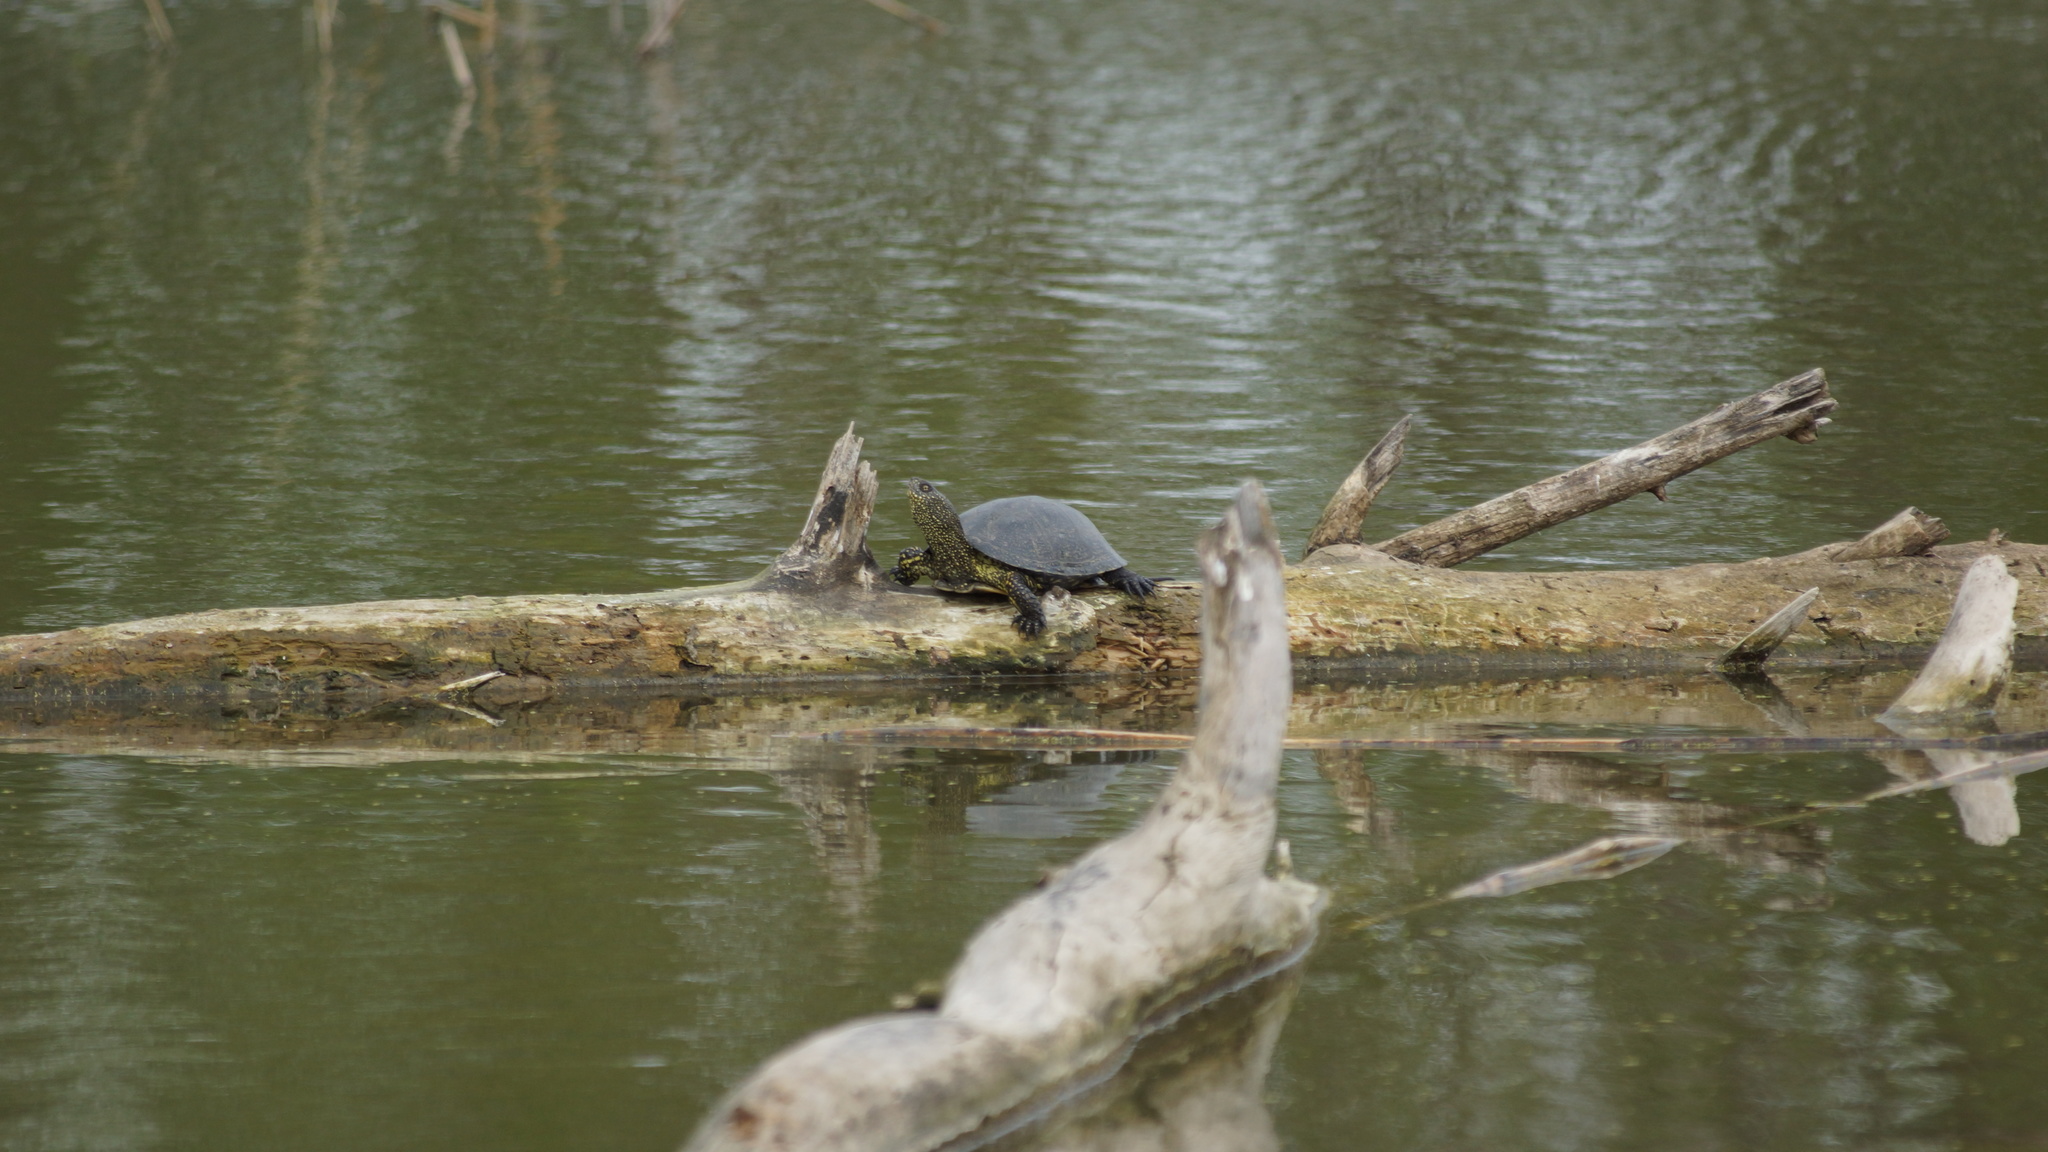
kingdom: Animalia
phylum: Chordata
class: Testudines
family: Emydidae
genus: Emys
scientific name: Emys orbicularis
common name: European pond turtle
